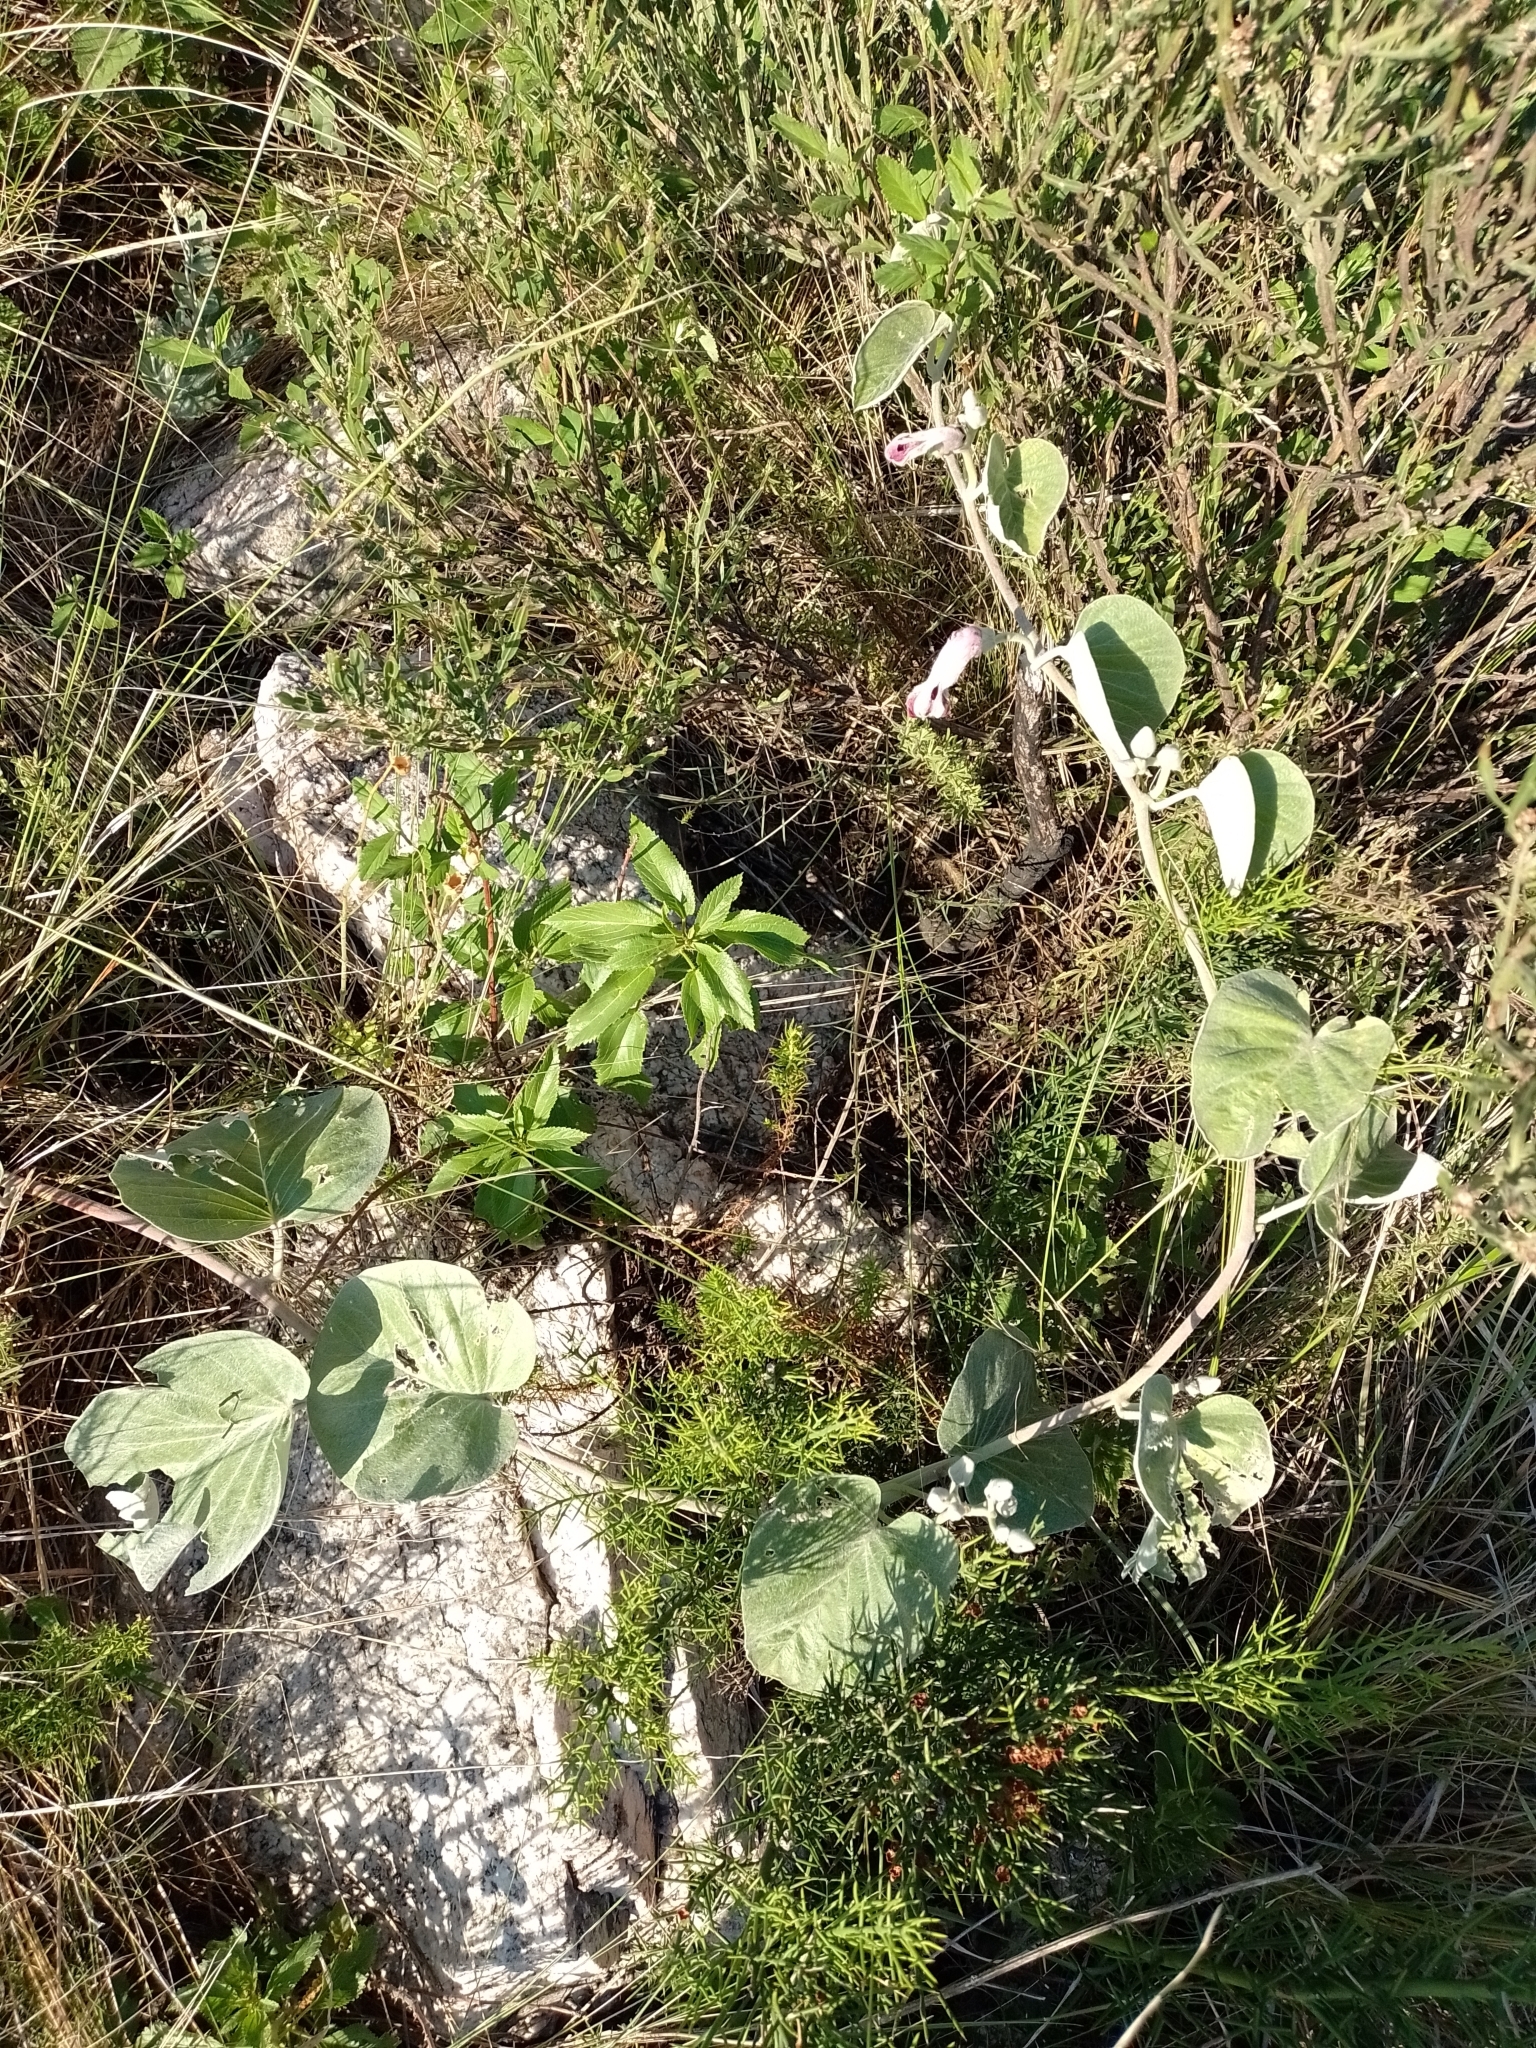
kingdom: Plantae
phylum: Tracheophyta
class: Magnoliopsida
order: Solanales
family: Convolvulaceae
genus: Ipomoea
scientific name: Ipomoea hieronymi
